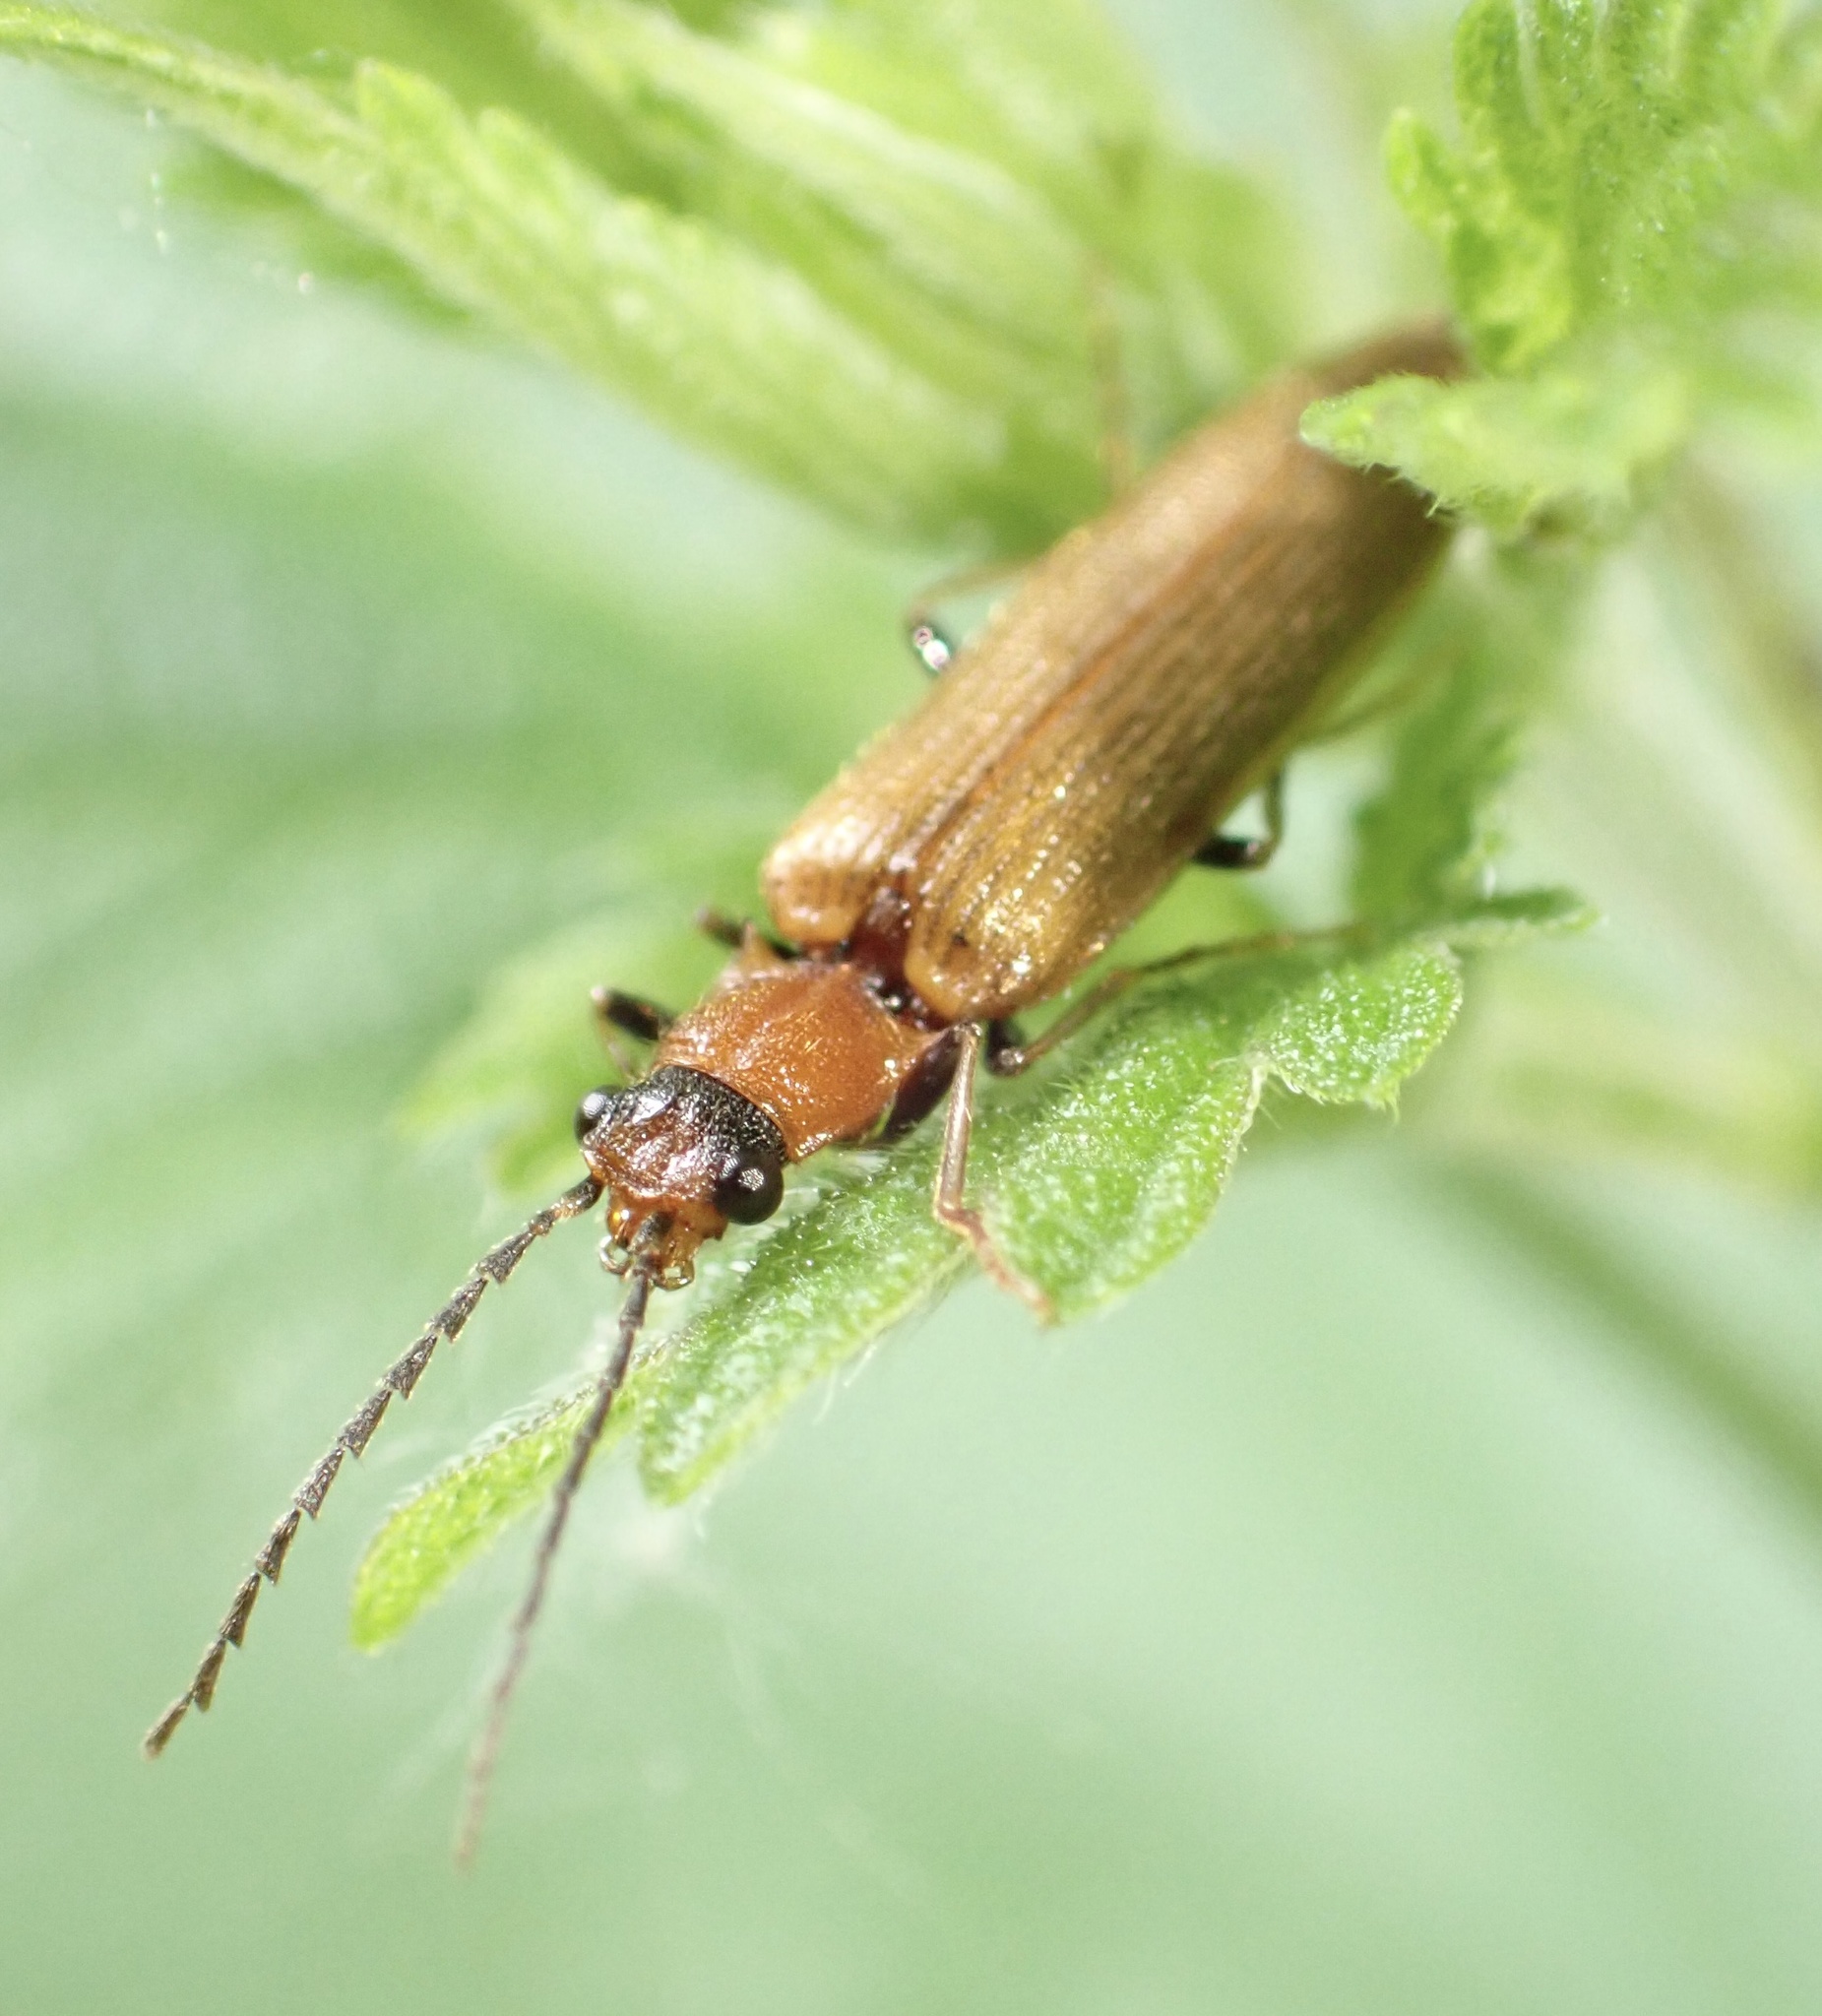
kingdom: Animalia
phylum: Arthropoda
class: Insecta
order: Coleoptera
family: Elateridae
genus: Denticollis
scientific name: Denticollis linearis
